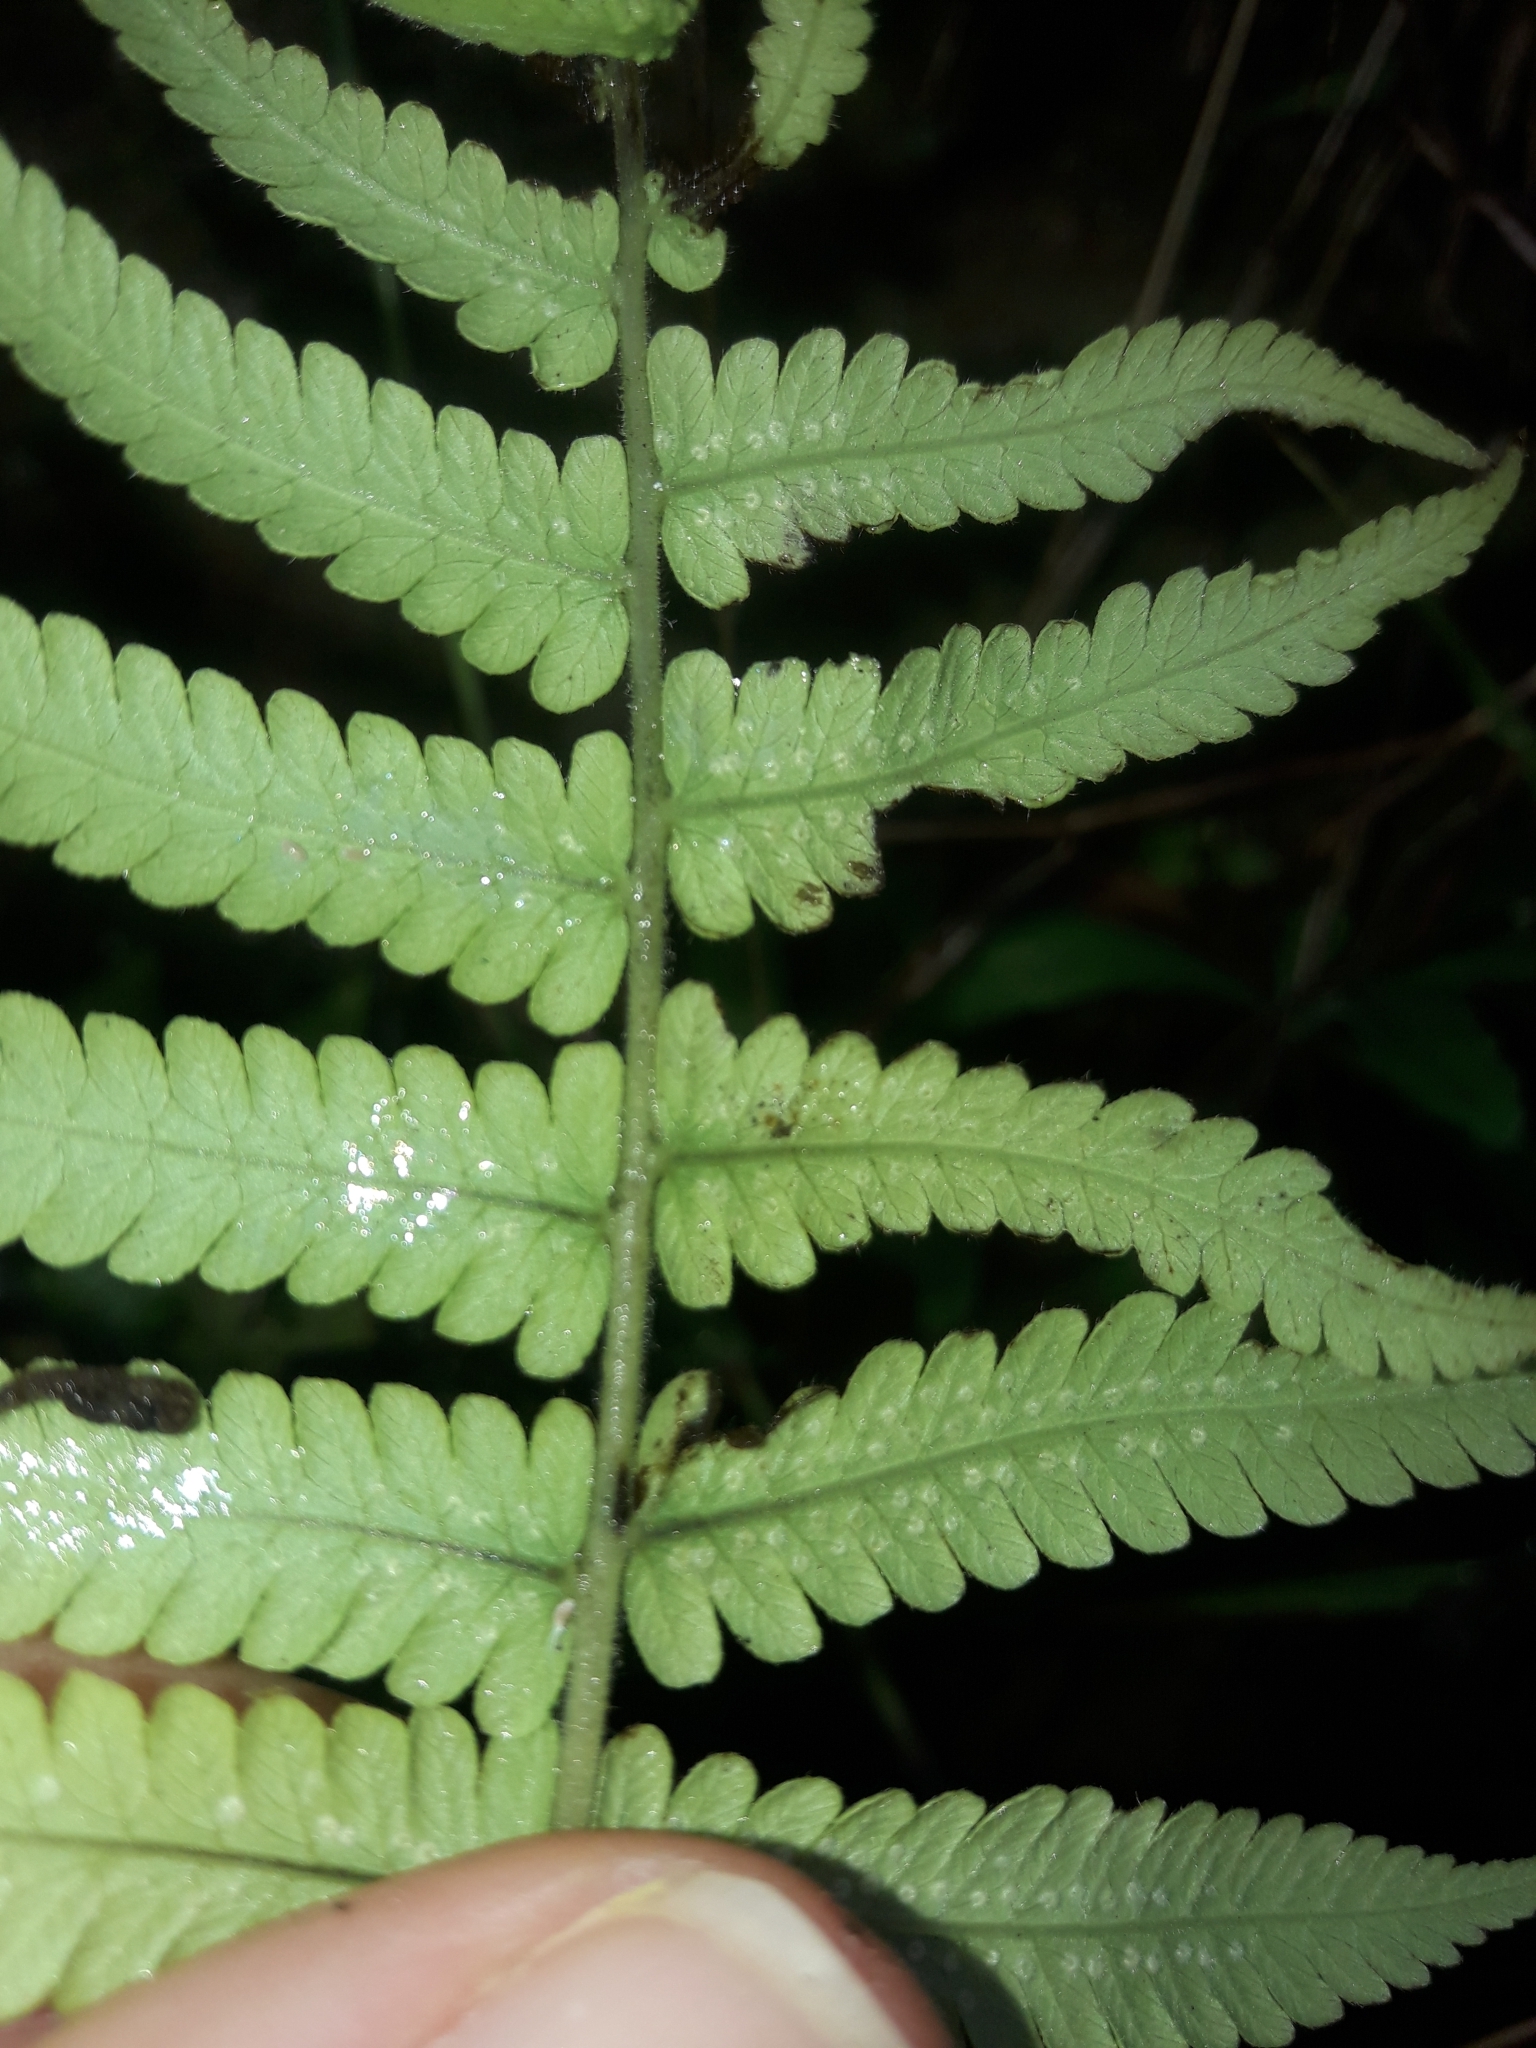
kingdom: Plantae
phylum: Tracheophyta
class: Polypodiopsida
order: Polypodiales
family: Thelypteridaceae
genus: Christella
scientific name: Christella dentata
